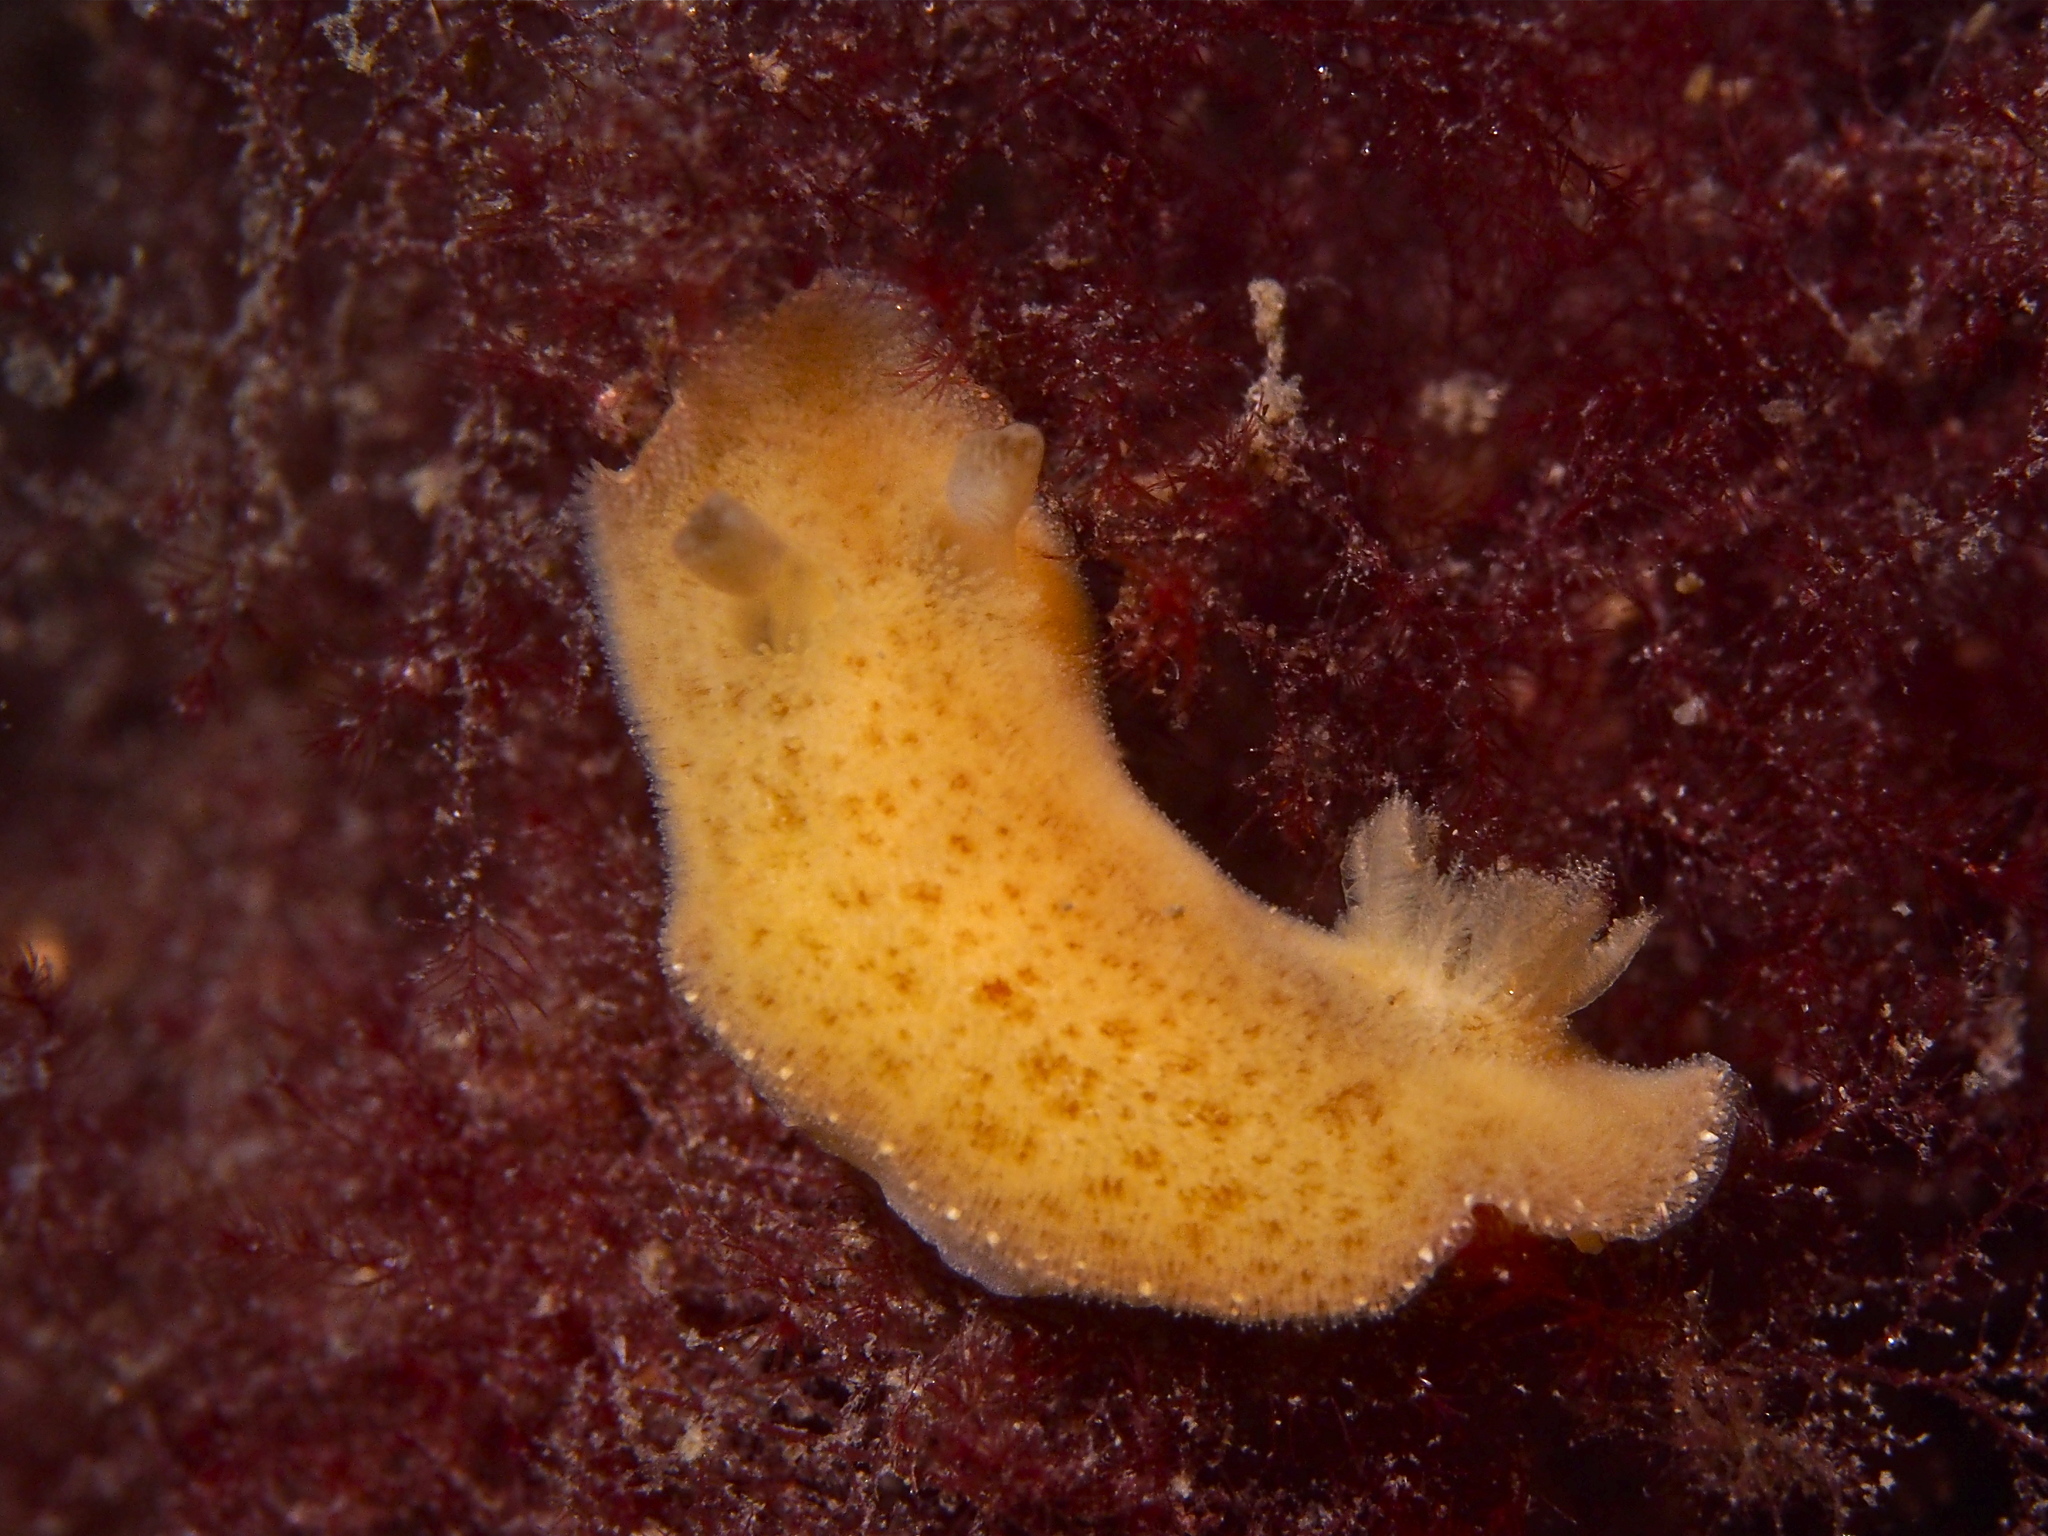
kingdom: Animalia
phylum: Mollusca
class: Gastropoda
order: Nudibranchia
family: Discodorididae
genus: Jorunna
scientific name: Jorunna tomentosa
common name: Grey sea slug
